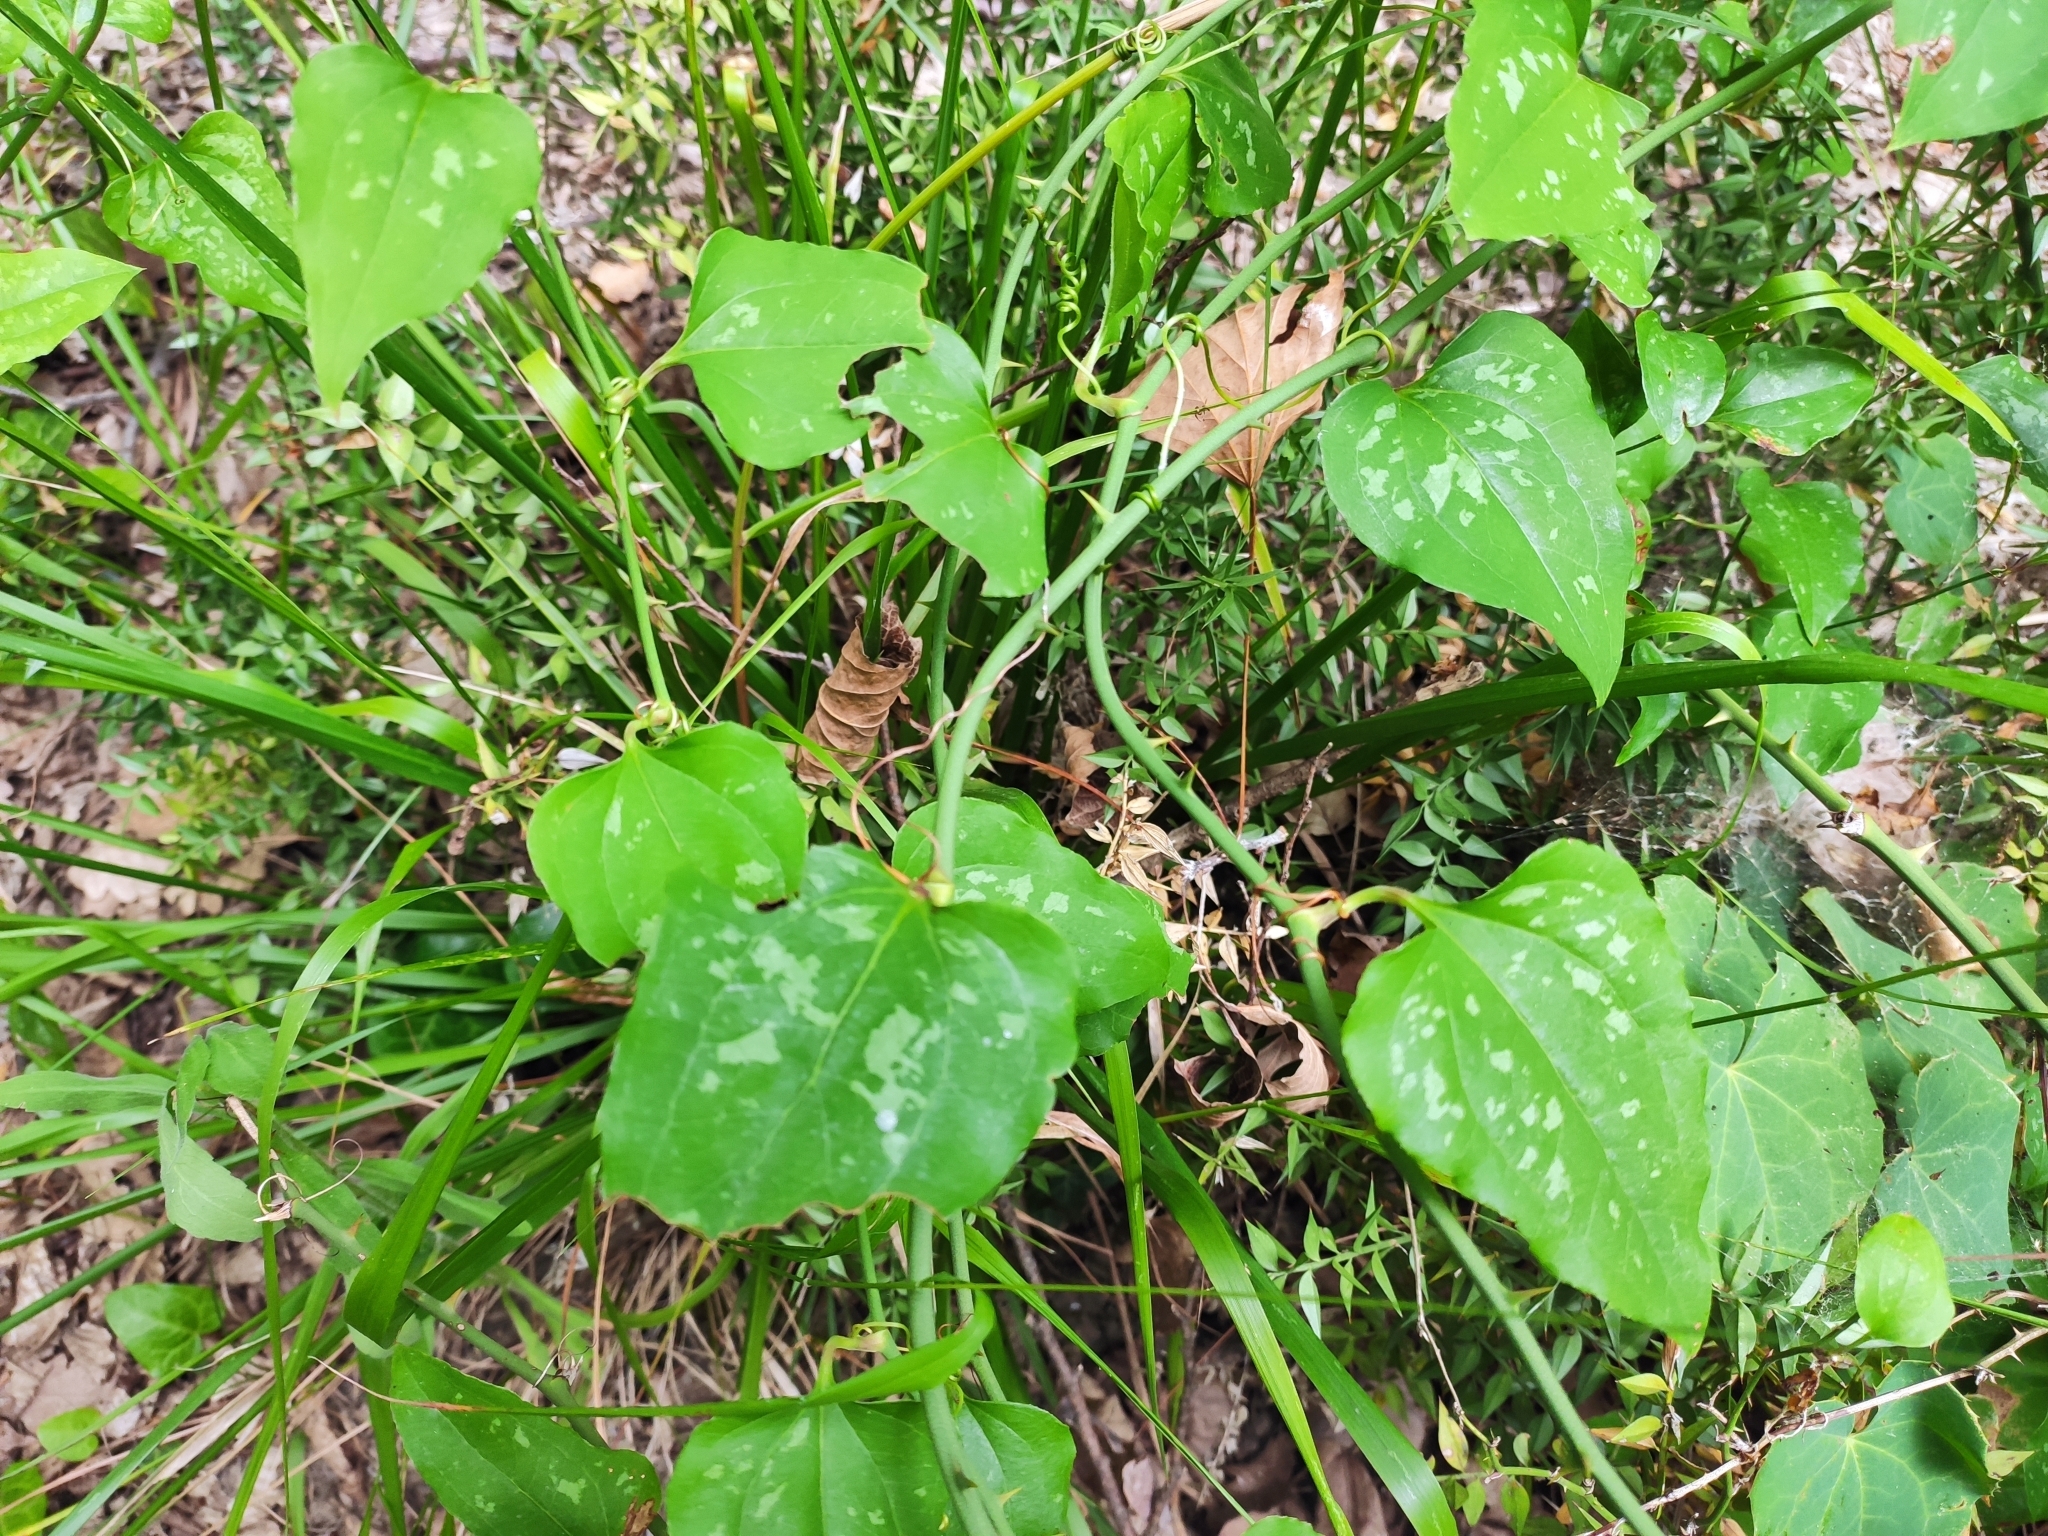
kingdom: Plantae
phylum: Tracheophyta
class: Liliopsida
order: Liliales
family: Smilacaceae
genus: Smilax
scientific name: Smilax excelsa
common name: Larger smilax
